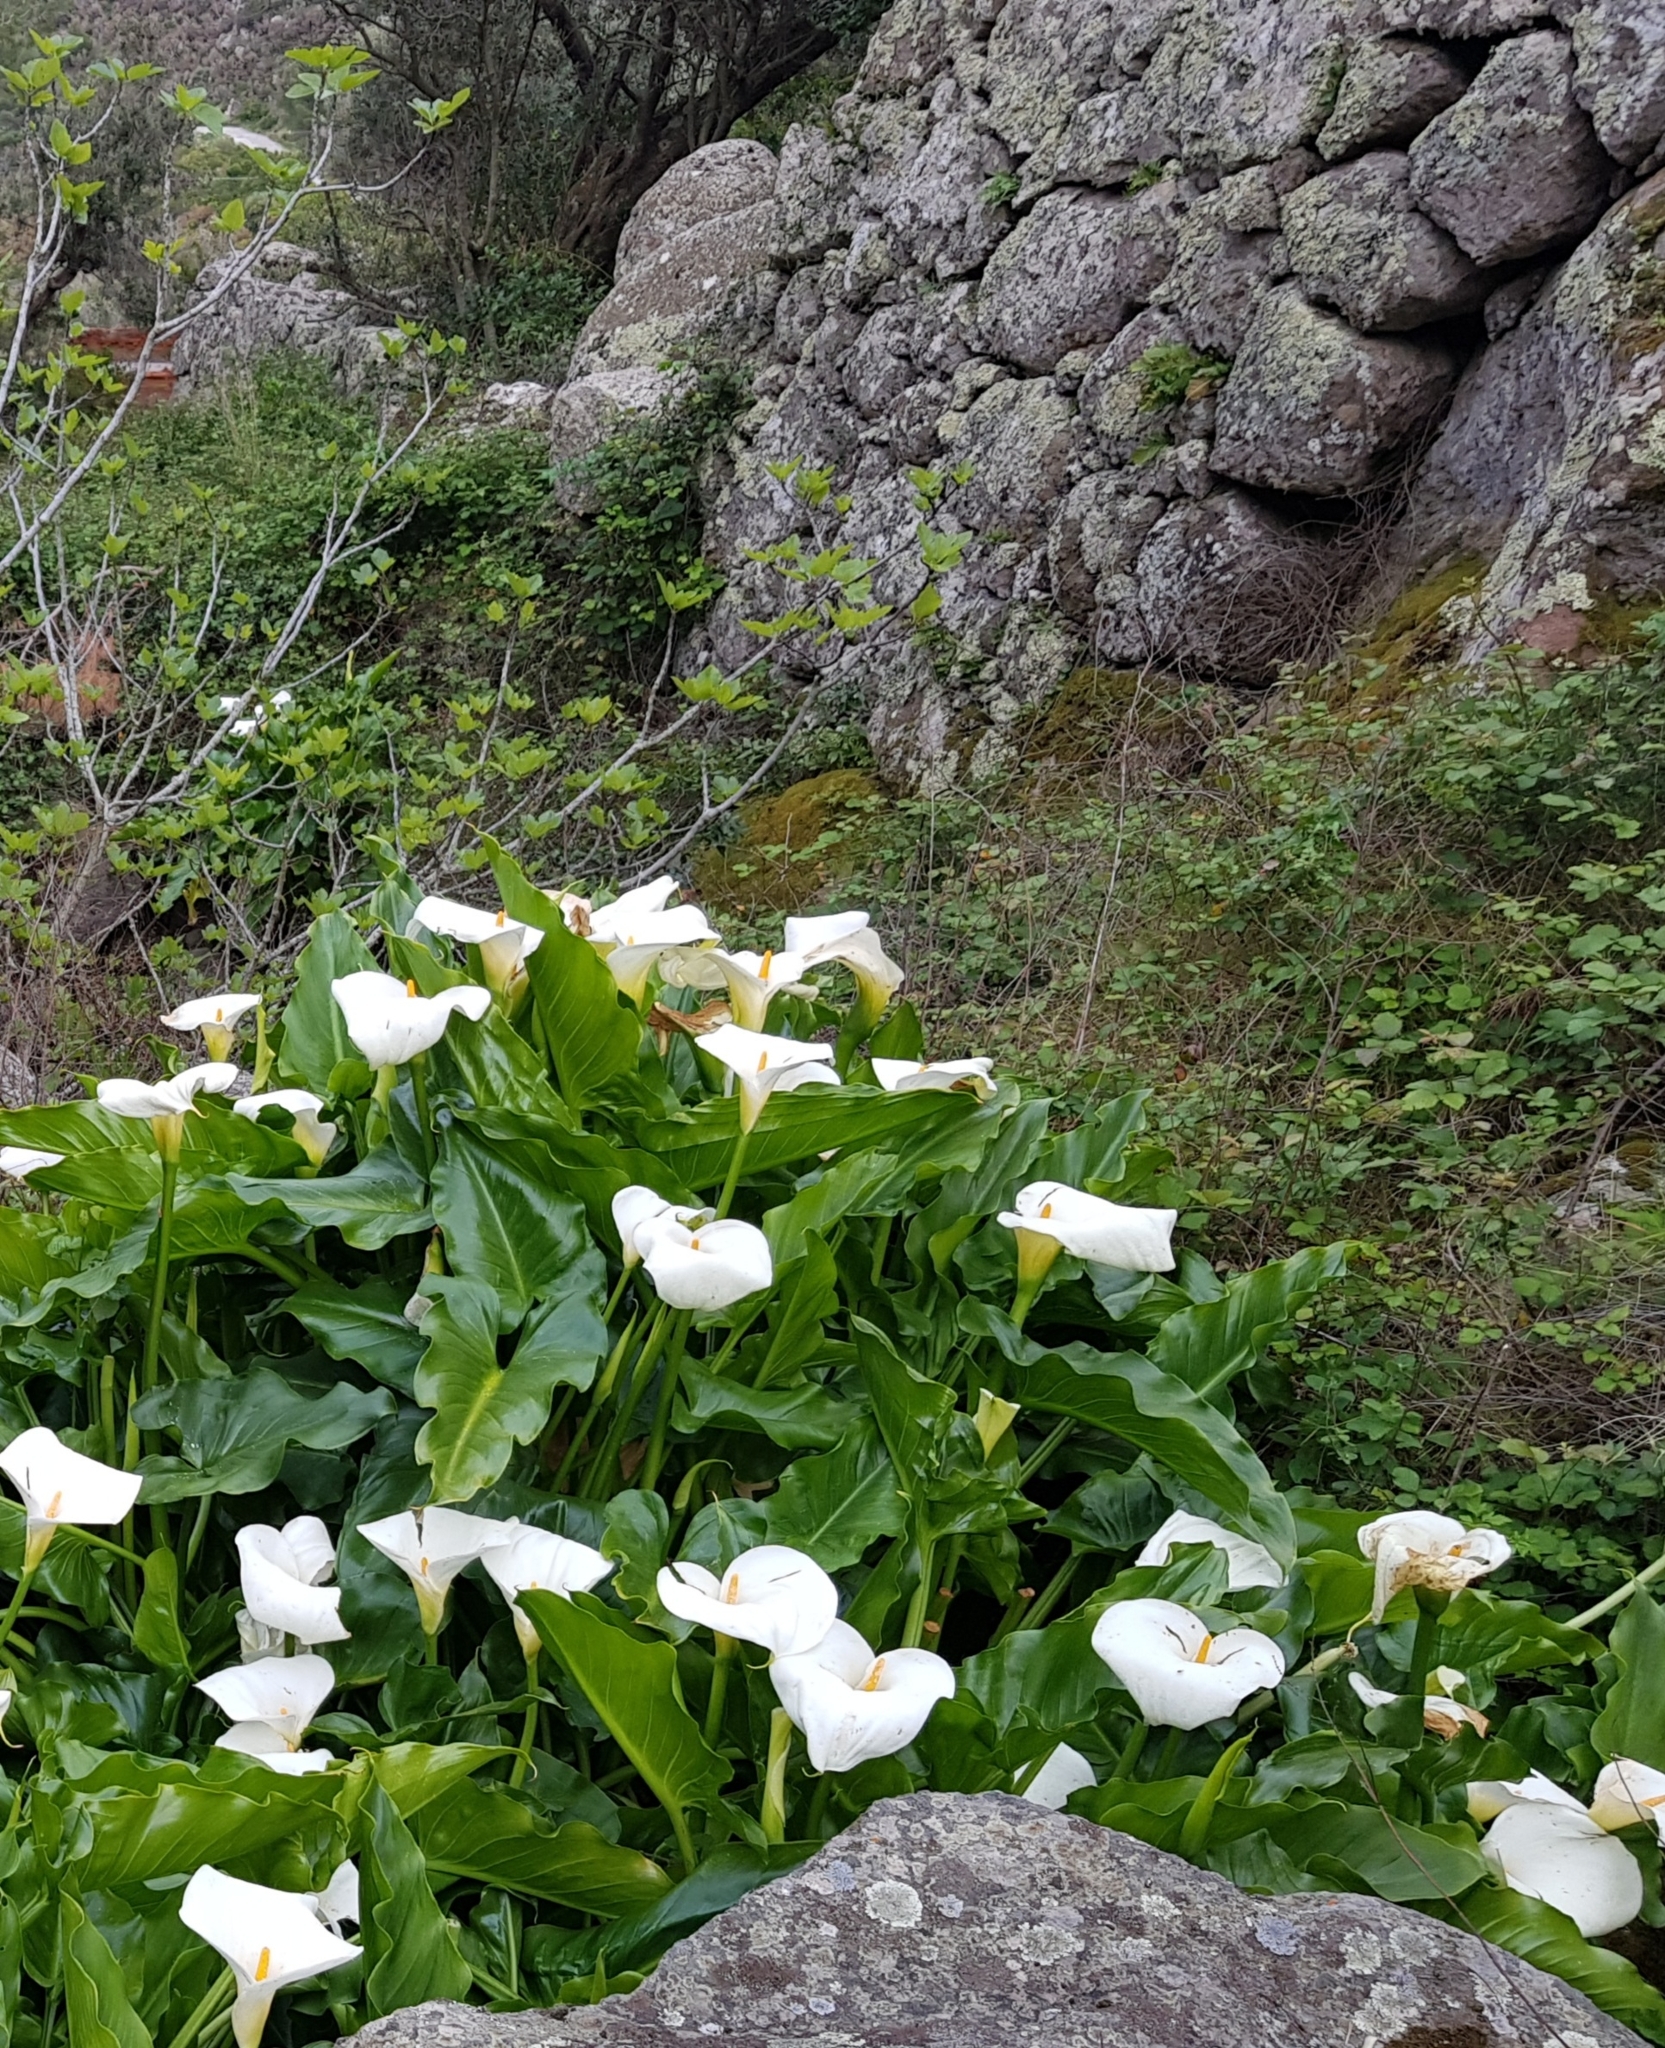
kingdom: Plantae
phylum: Tracheophyta
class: Liliopsida
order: Alismatales
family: Araceae
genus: Zantedeschia
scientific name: Zantedeschia aethiopica
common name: Altar-lily
